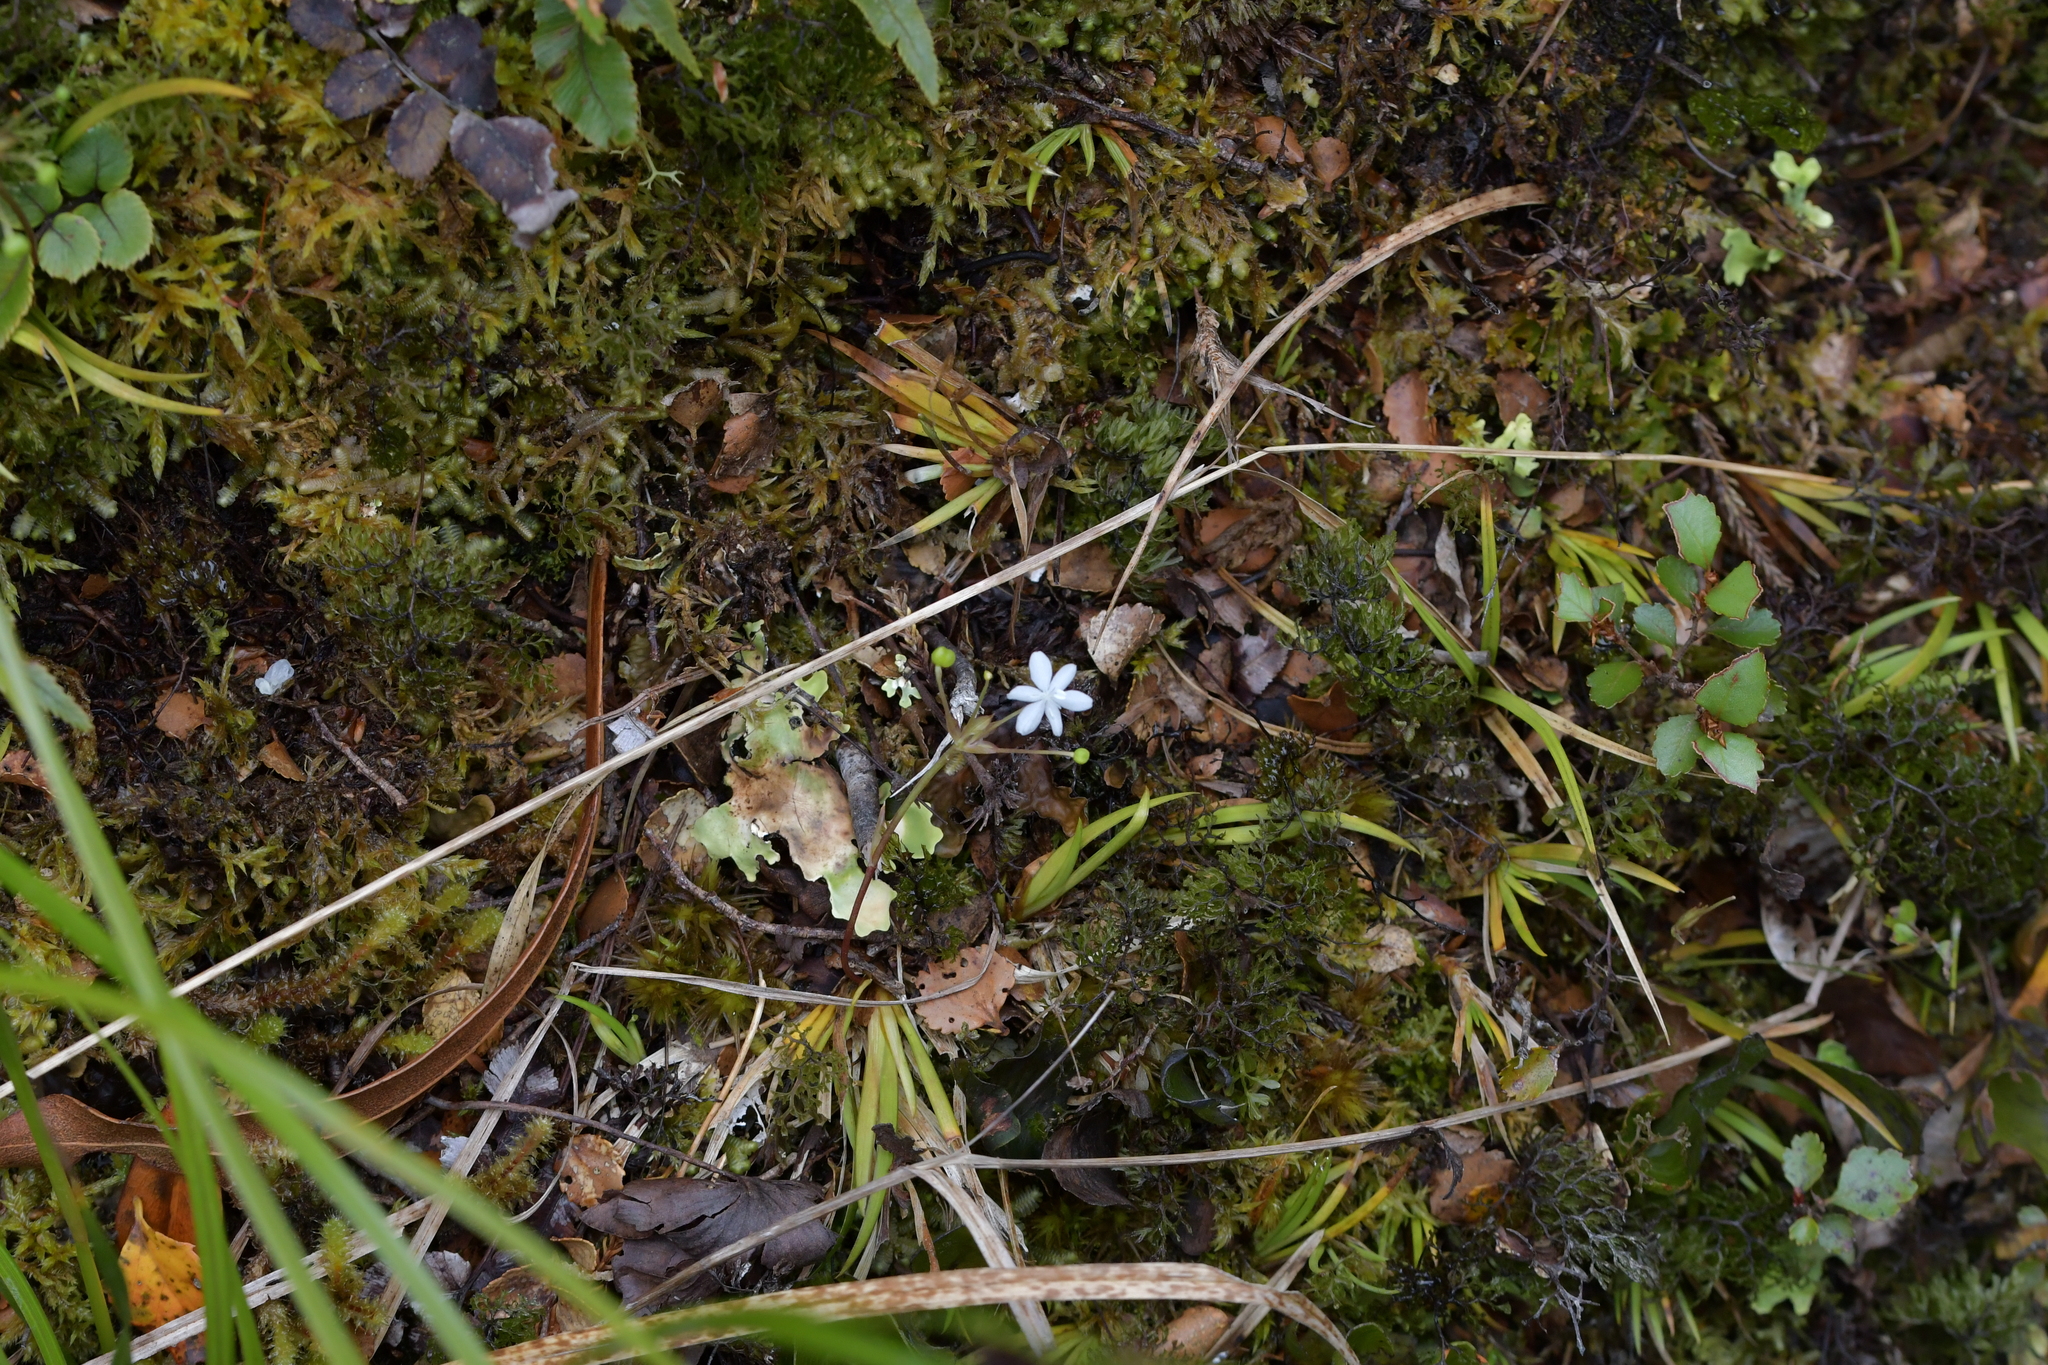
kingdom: Plantae
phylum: Tracheophyta
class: Liliopsida
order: Asparagales
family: Iridaceae
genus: Libertia
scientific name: Libertia micrantha
